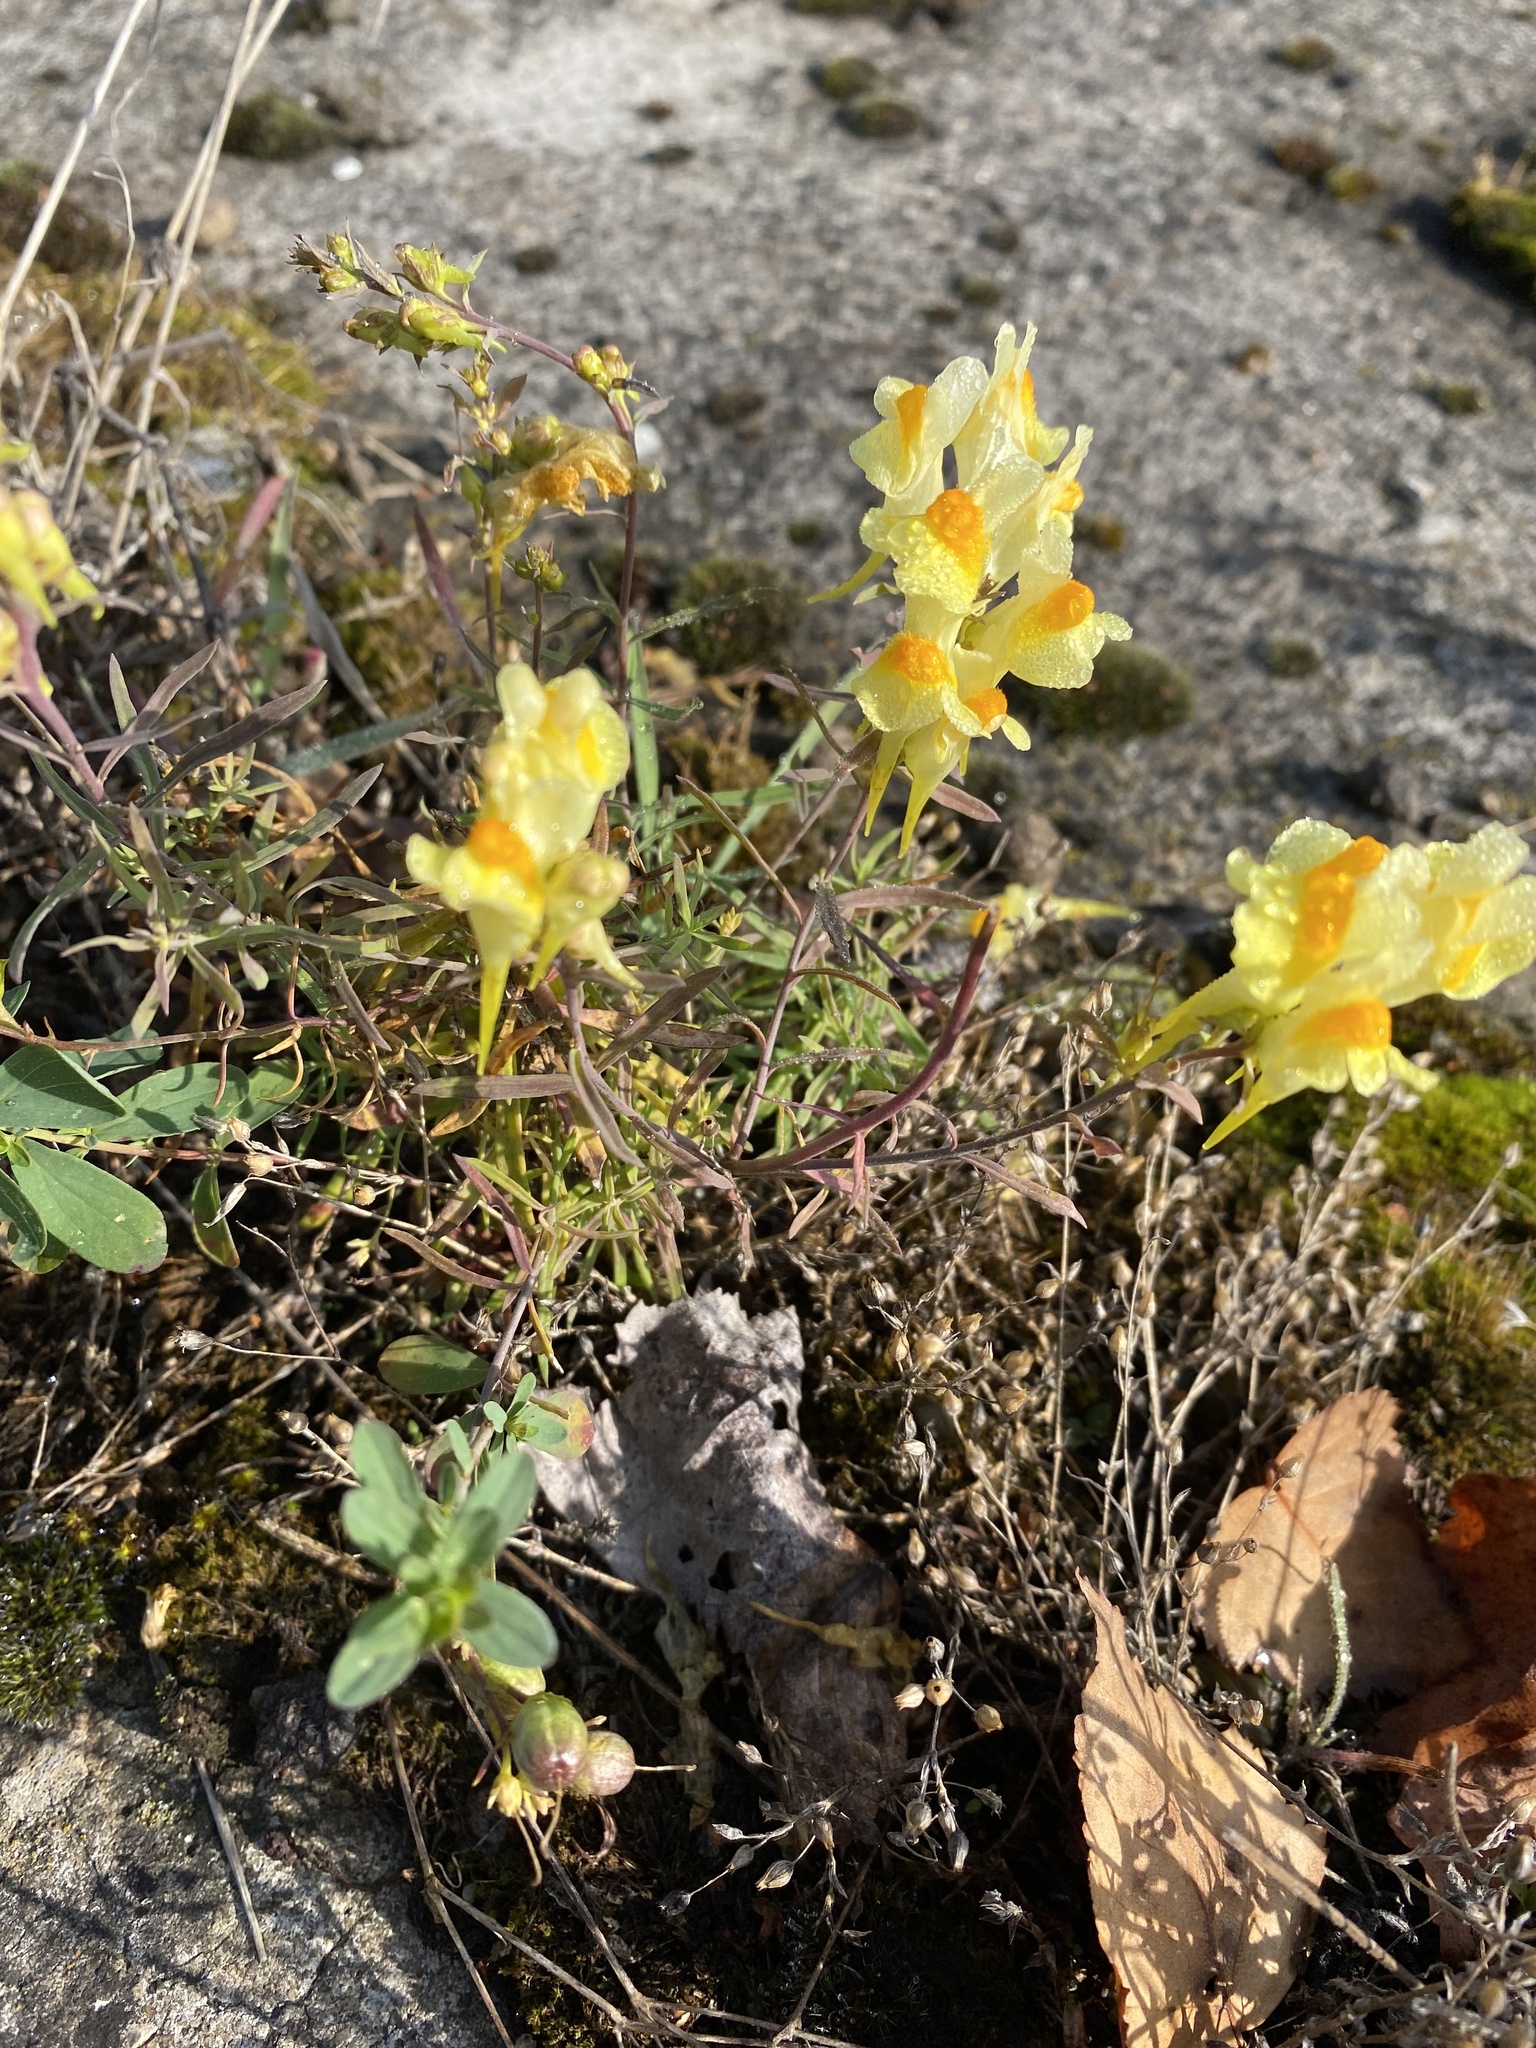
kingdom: Plantae
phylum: Tracheophyta
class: Magnoliopsida
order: Lamiales
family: Plantaginaceae
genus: Linaria
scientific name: Linaria vulgaris
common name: Butter and eggs
